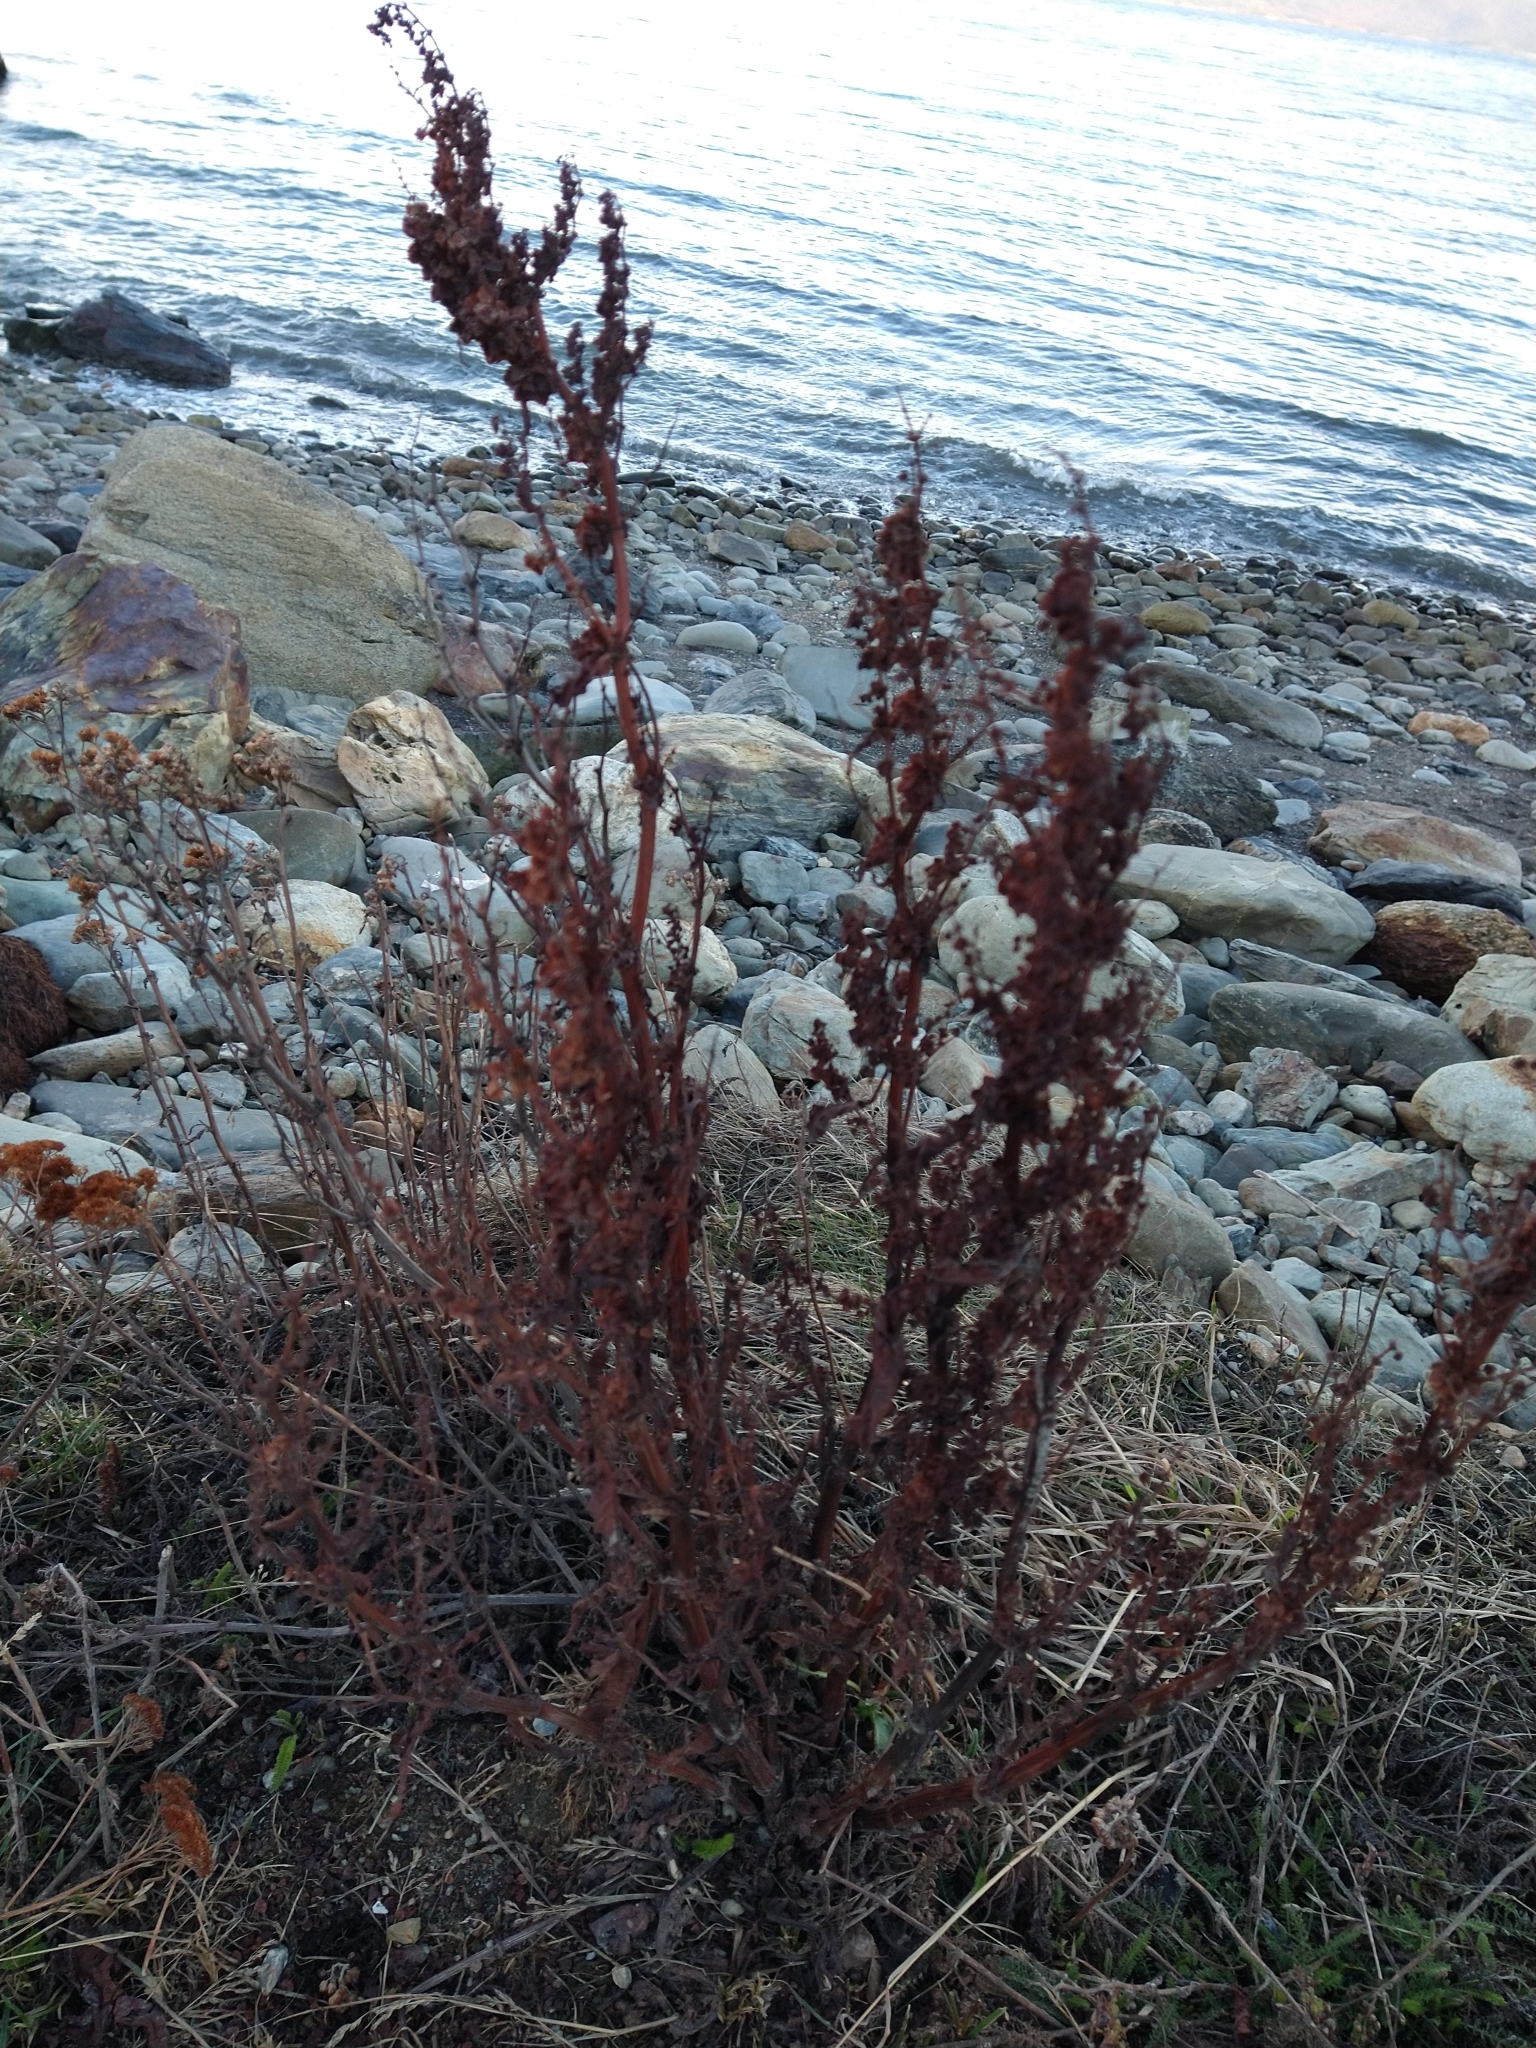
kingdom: Plantae
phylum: Tracheophyta
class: Magnoliopsida
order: Caryophyllales
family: Polygonaceae
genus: Rumex
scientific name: Rumex crispus
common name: Curled dock
